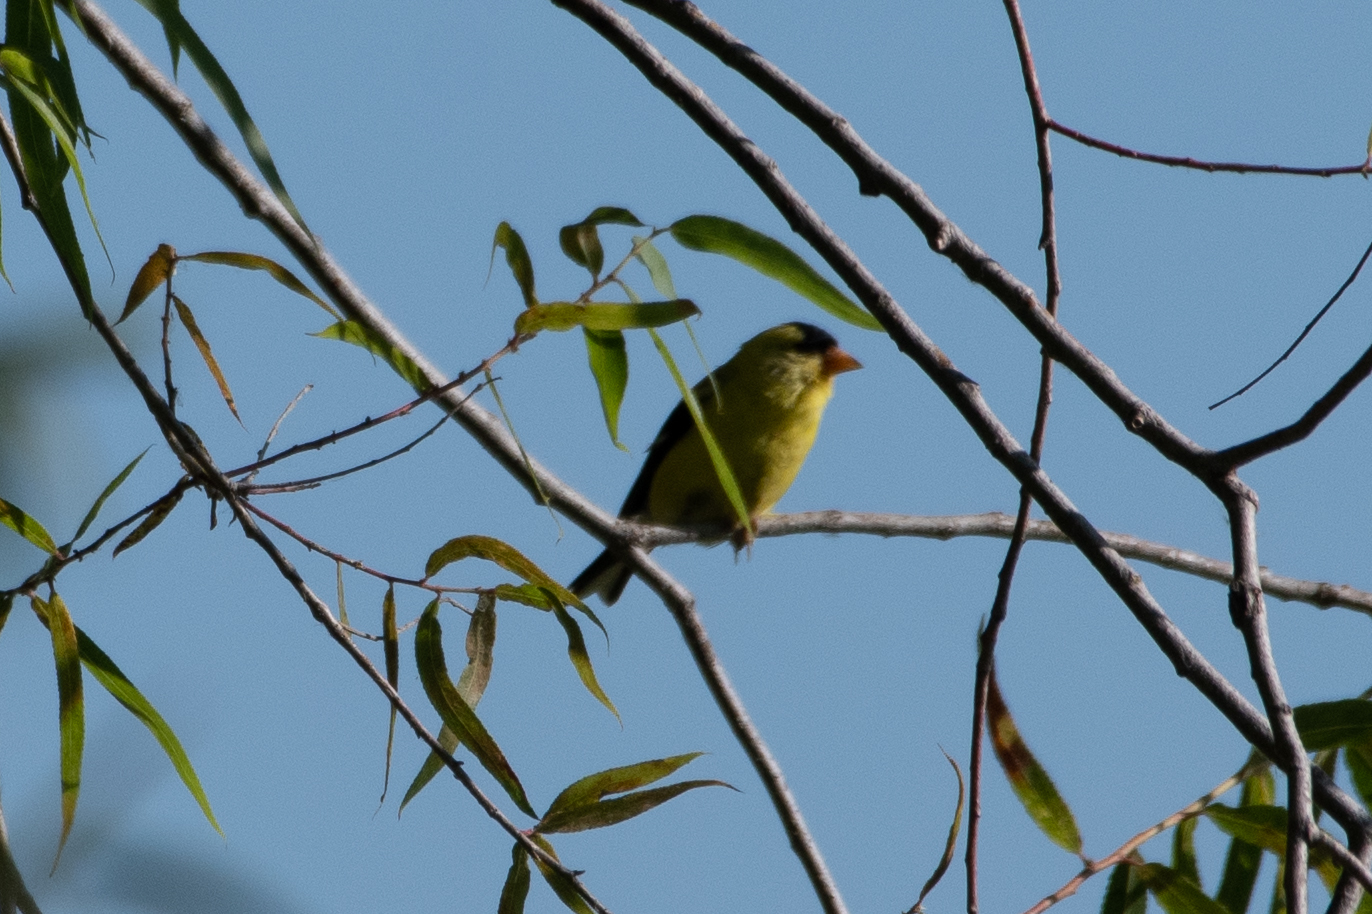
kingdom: Animalia
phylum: Chordata
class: Aves
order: Passeriformes
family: Fringillidae
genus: Spinus
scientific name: Spinus tristis
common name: American goldfinch
